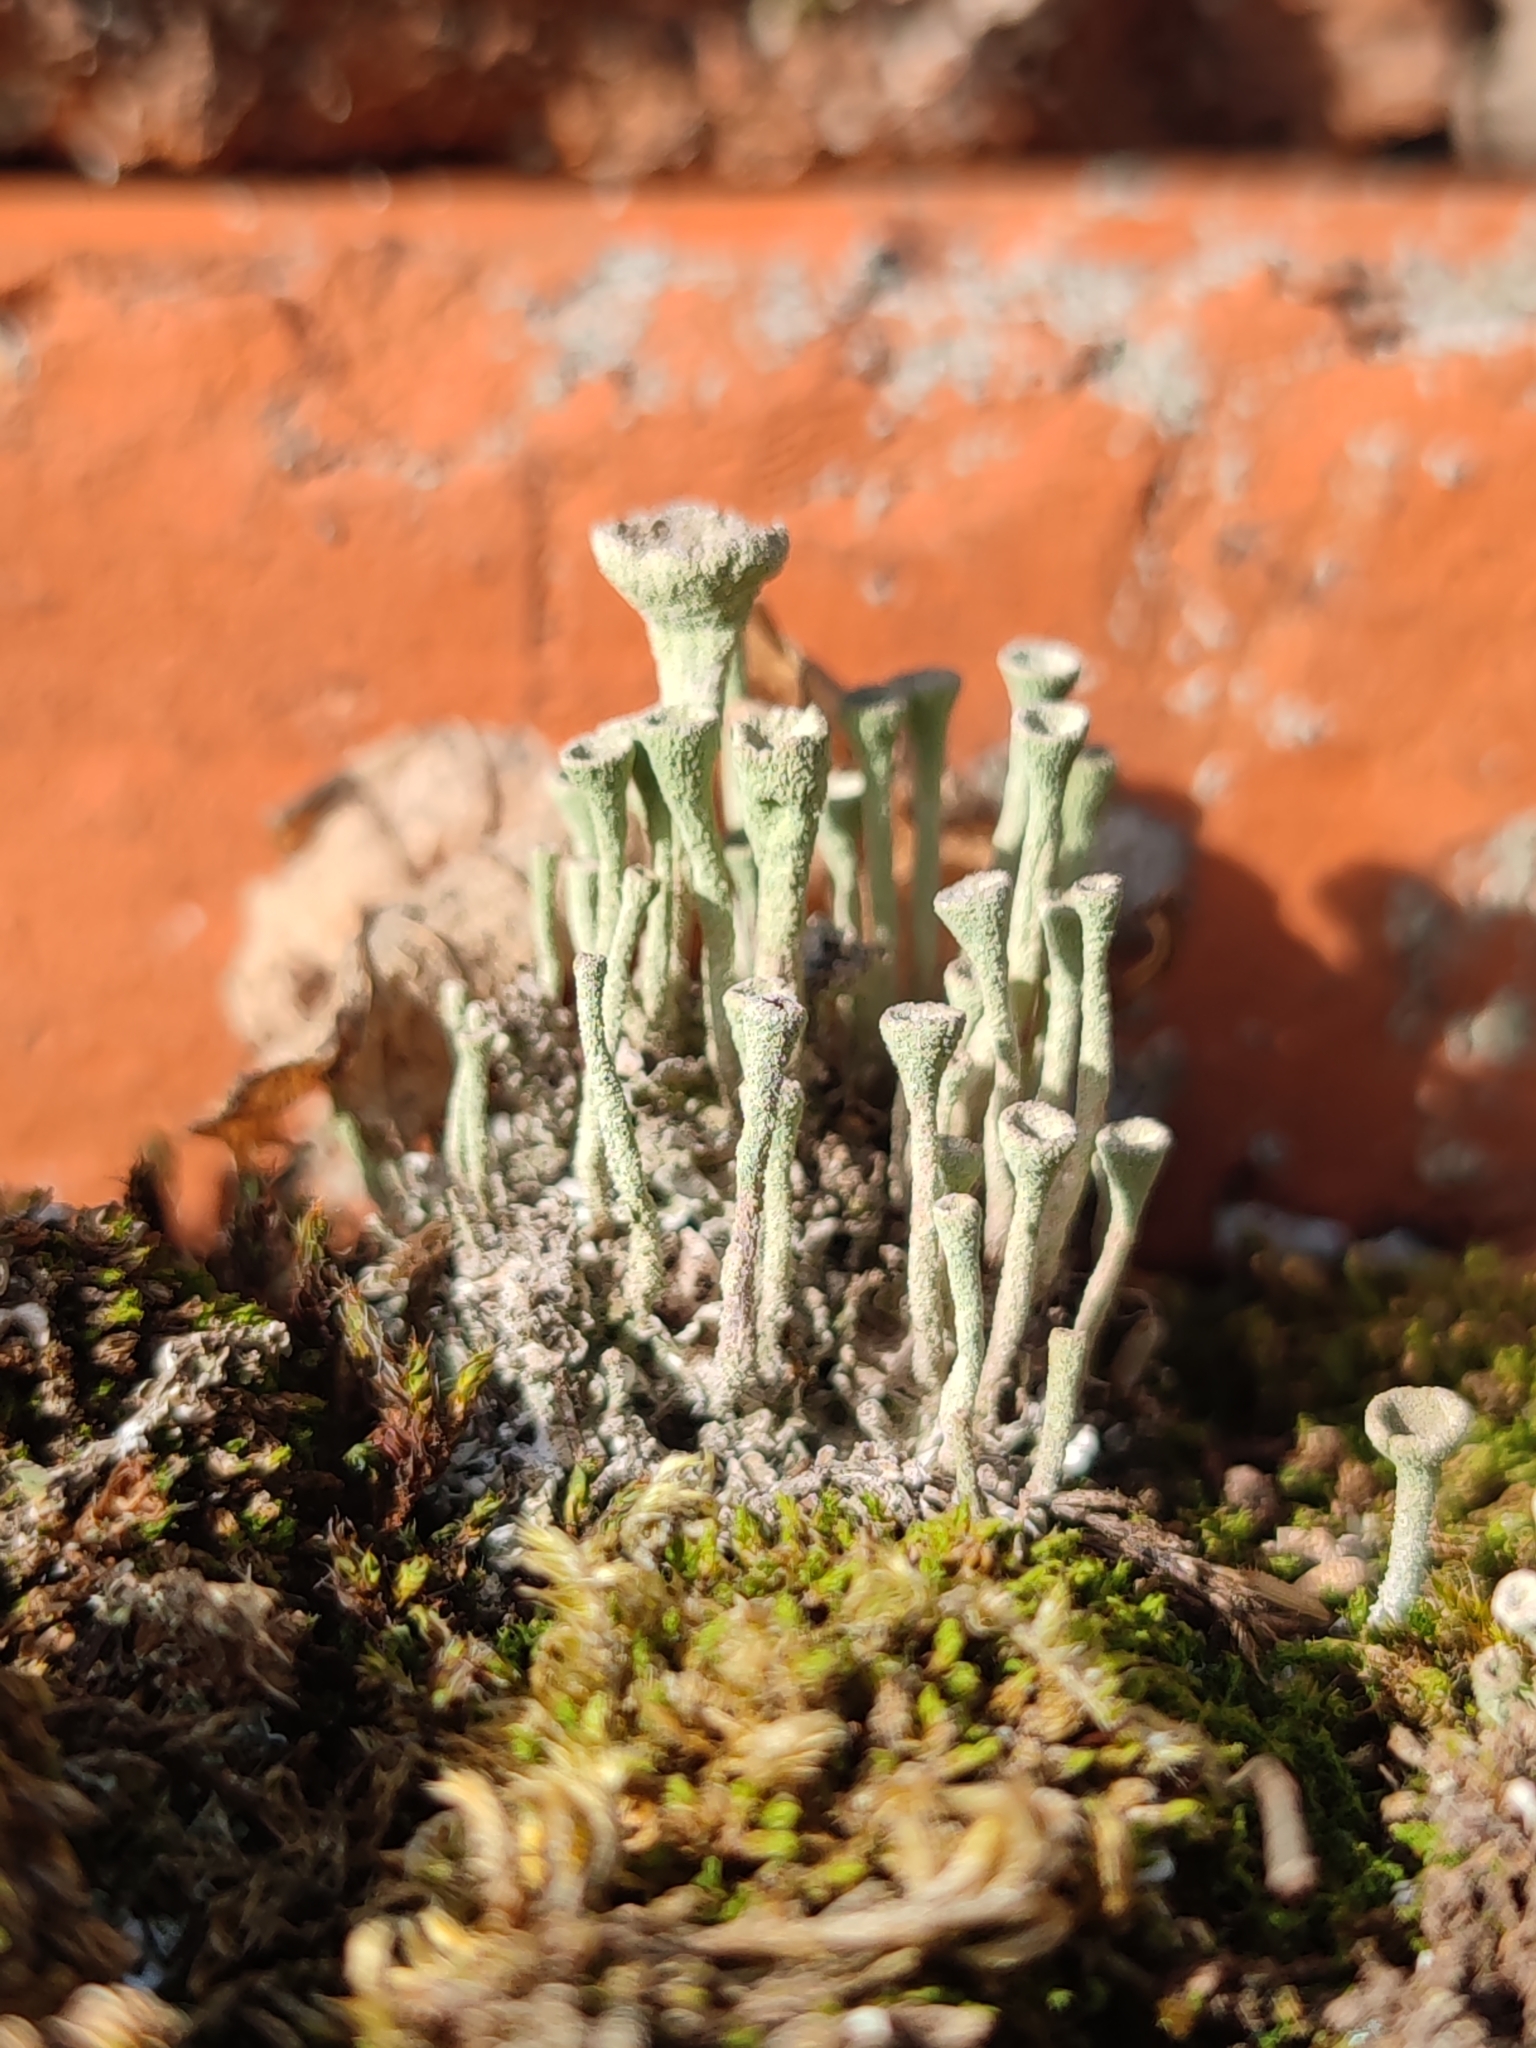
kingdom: Fungi
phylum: Ascomycota
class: Lecanoromycetes
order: Lecanorales
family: Cladoniaceae
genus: Cladonia
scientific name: Cladonia fimbriata
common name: Powdered trumpet lichen
